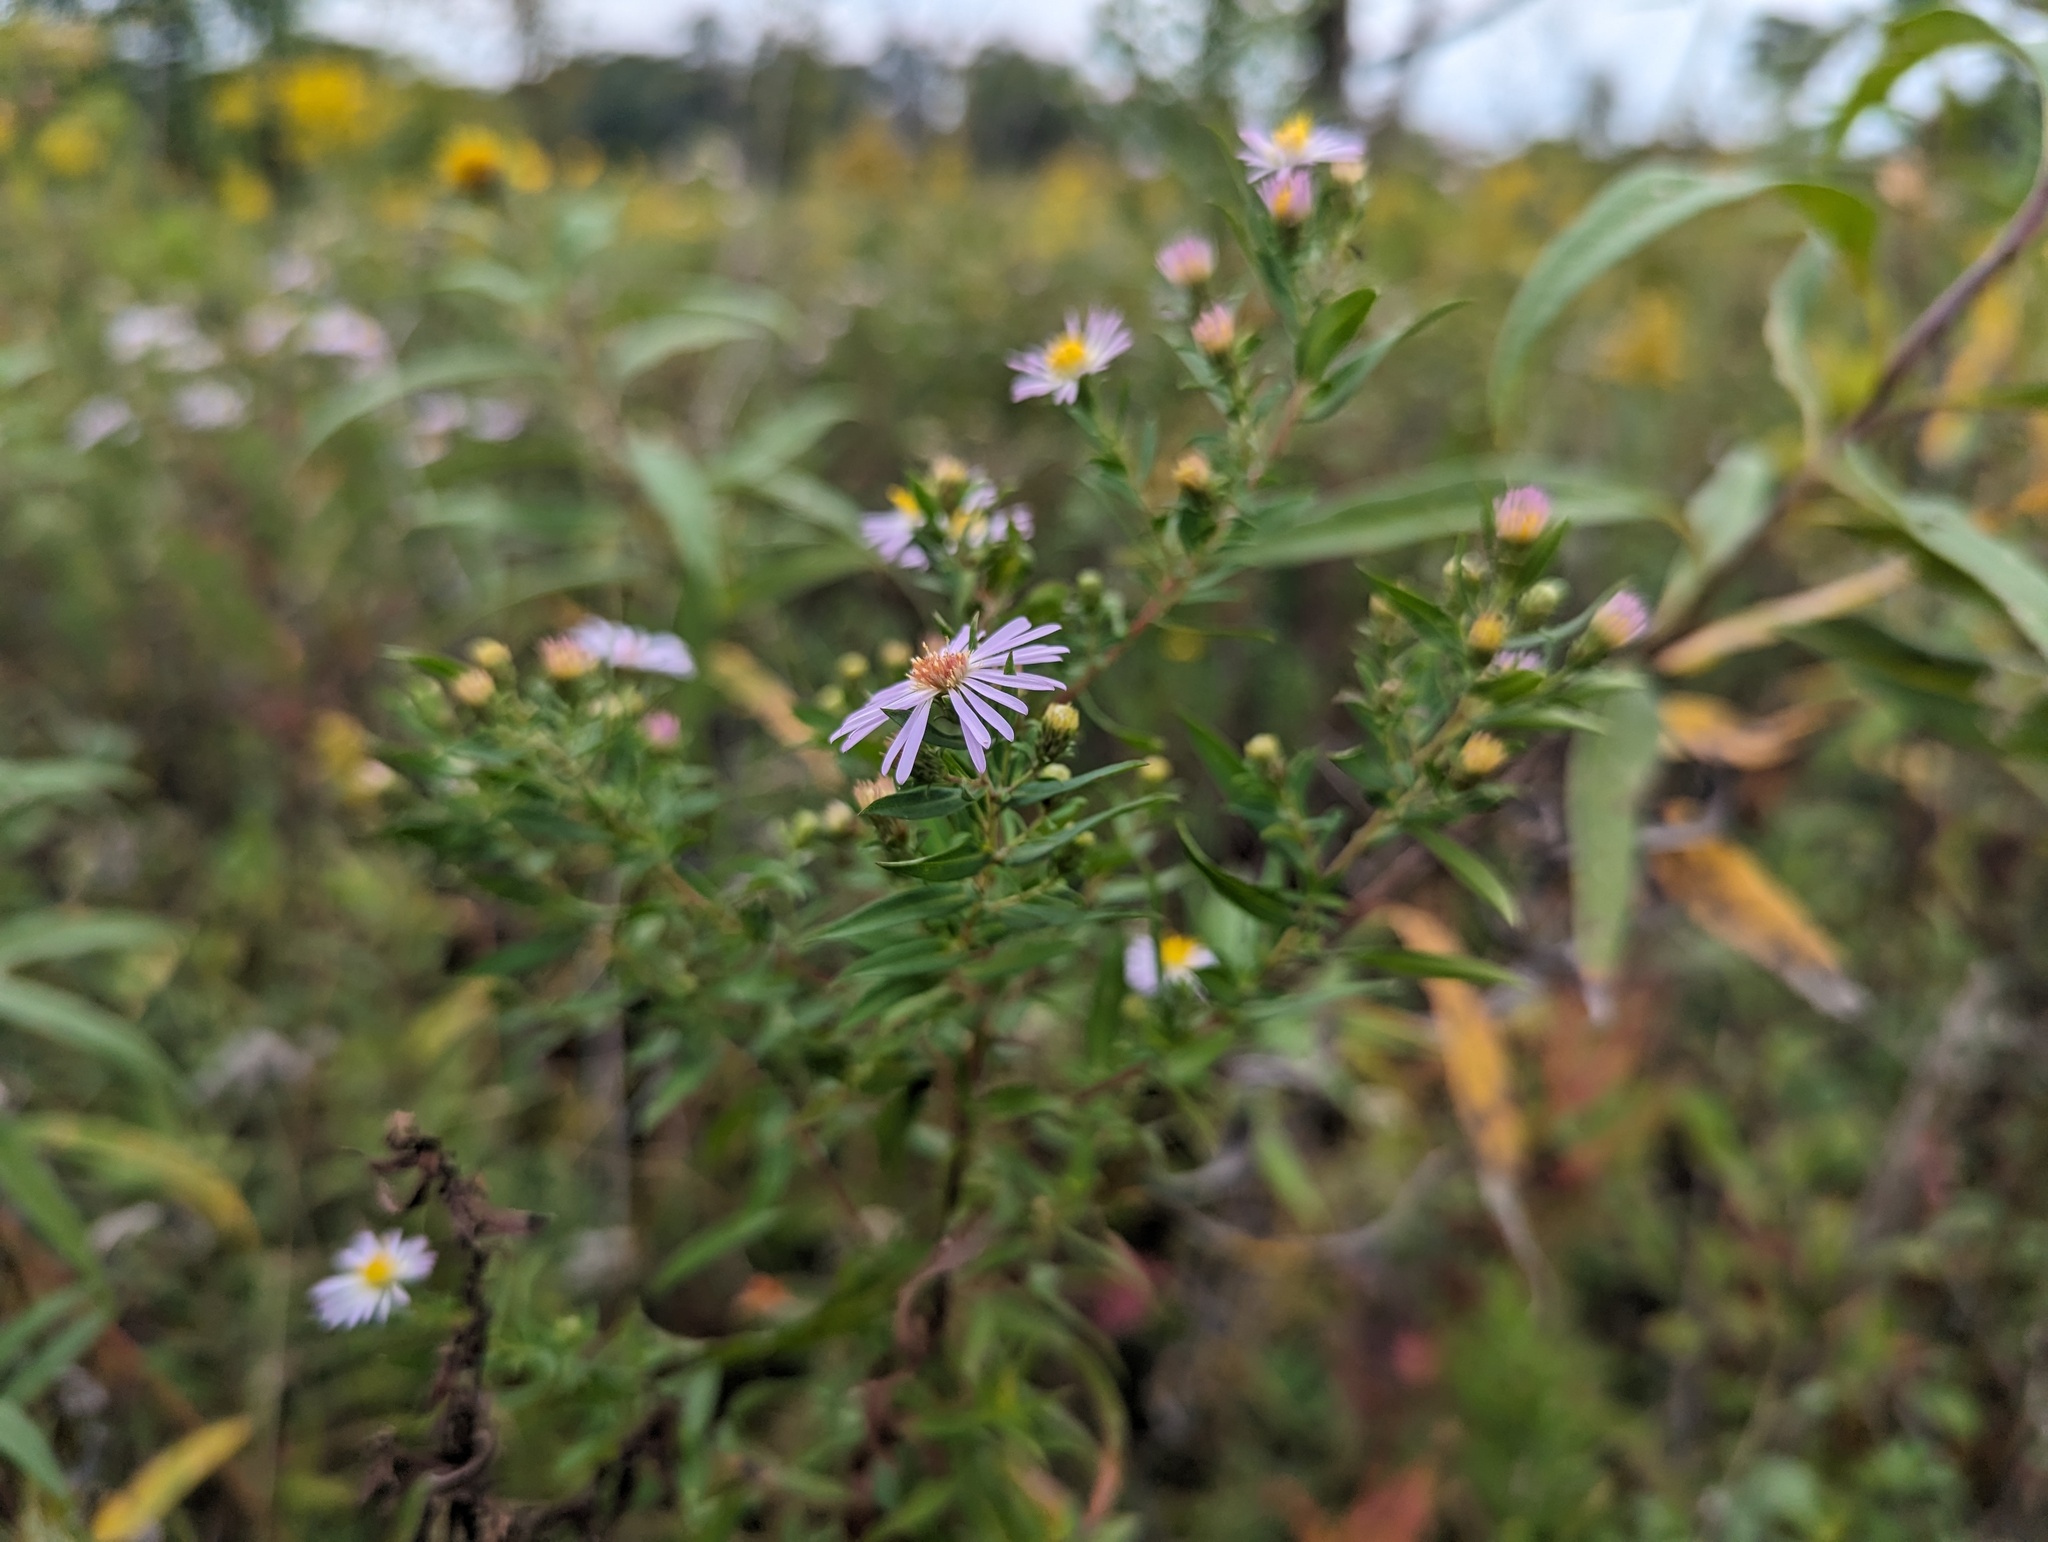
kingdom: Plantae
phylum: Tracheophyta
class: Magnoliopsida
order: Asterales
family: Asteraceae
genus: Symphyotrichum
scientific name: Symphyotrichum praealtum
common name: Willow aster
